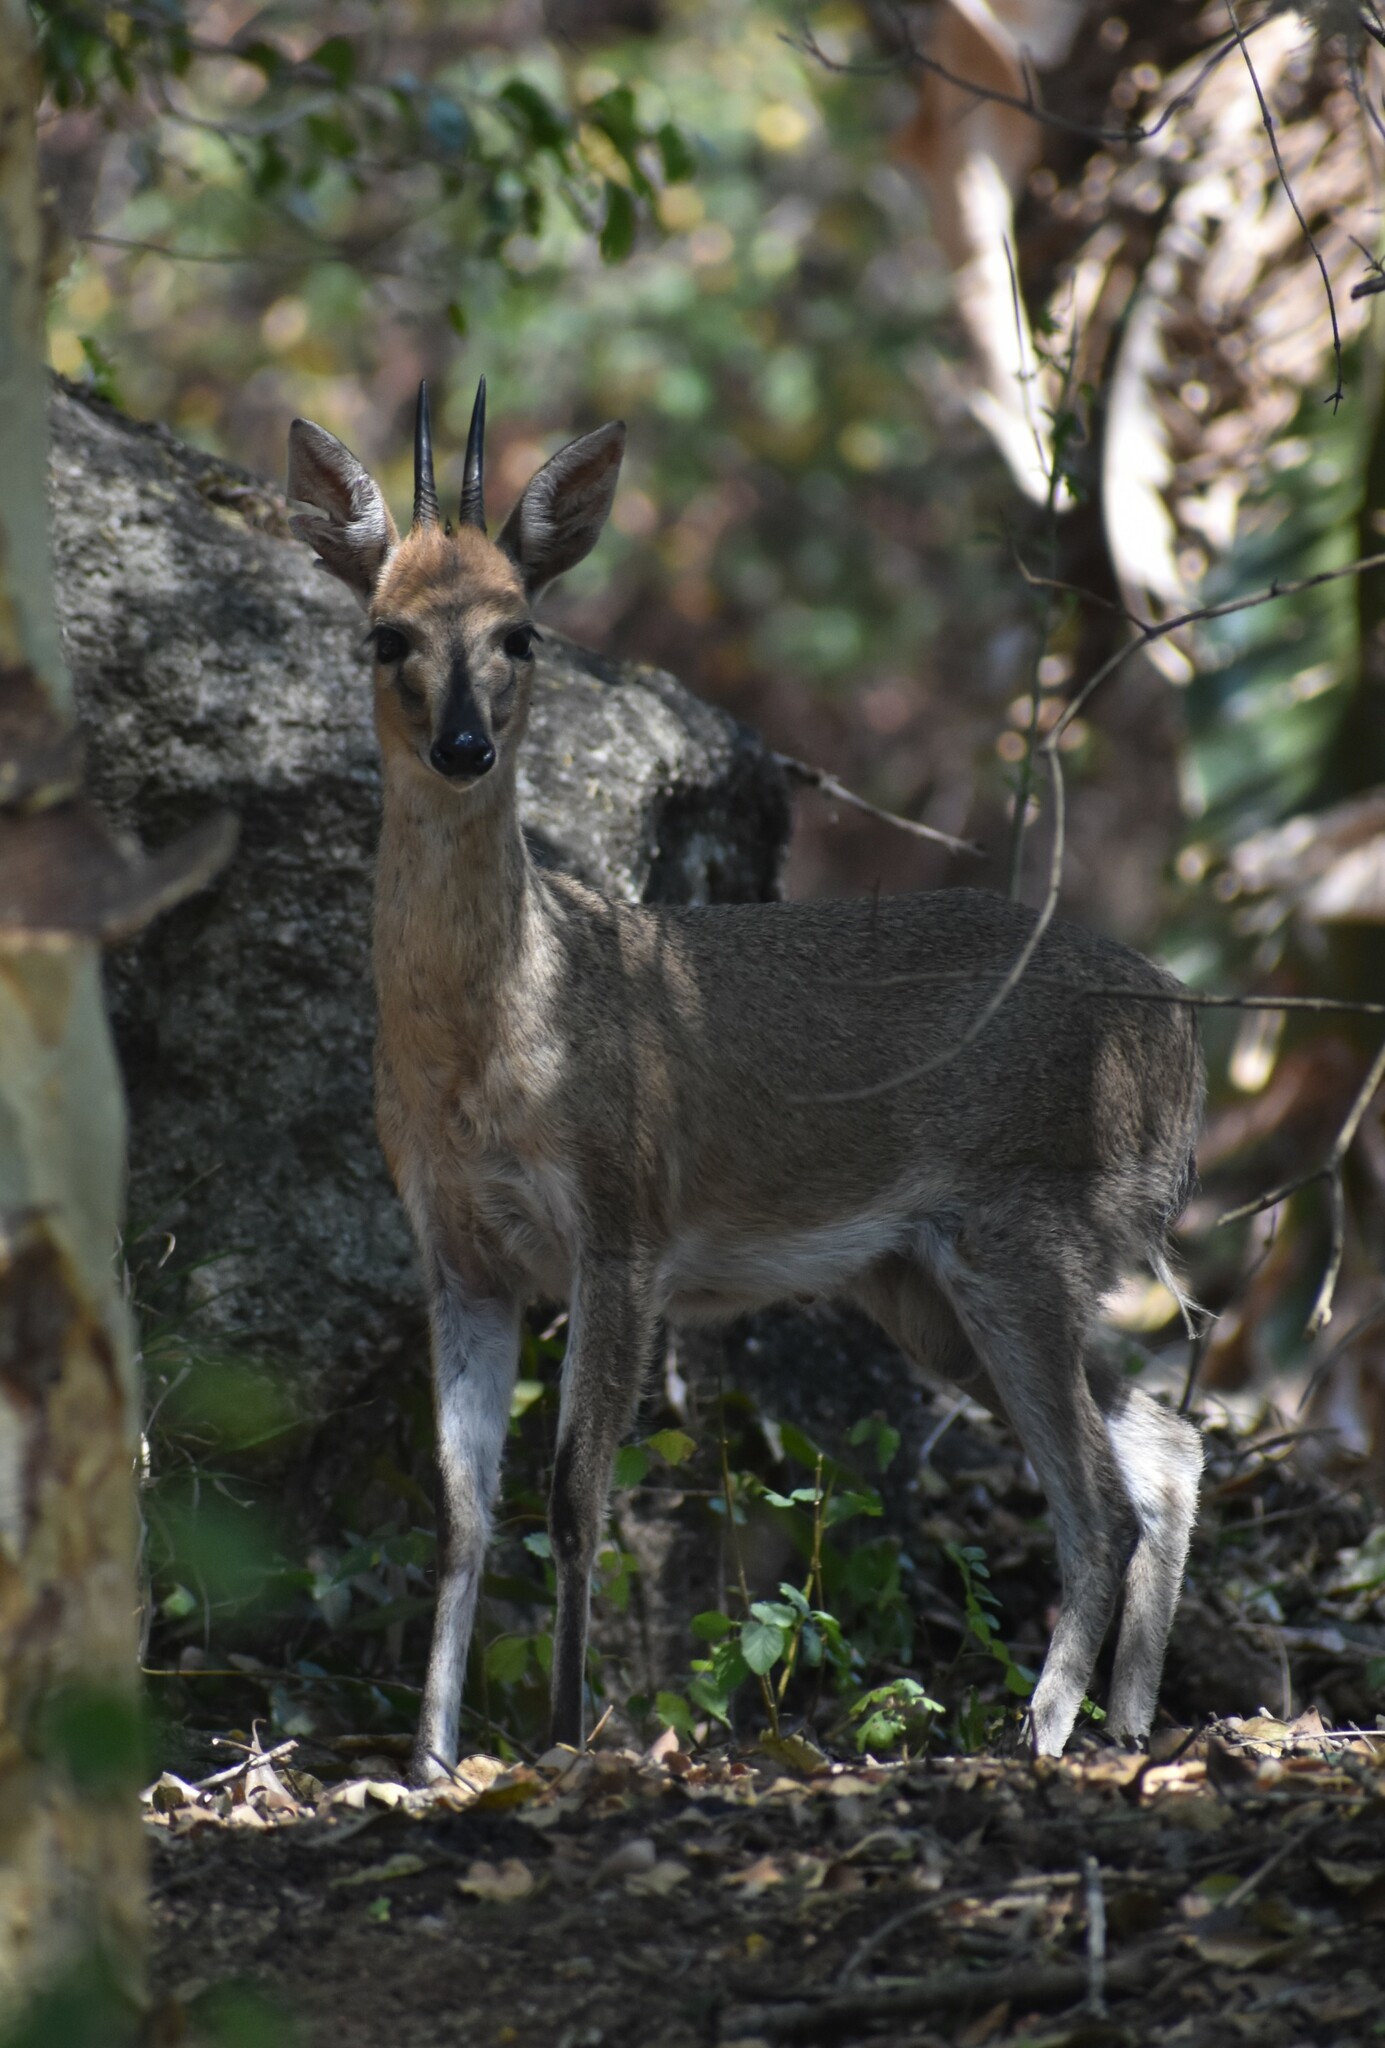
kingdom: Animalia
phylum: Chordata
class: Mammalia
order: Artiodactyla
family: Bovidae
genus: Sylvicapra
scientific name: Sylvicapra grimmia
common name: Bush duiker
